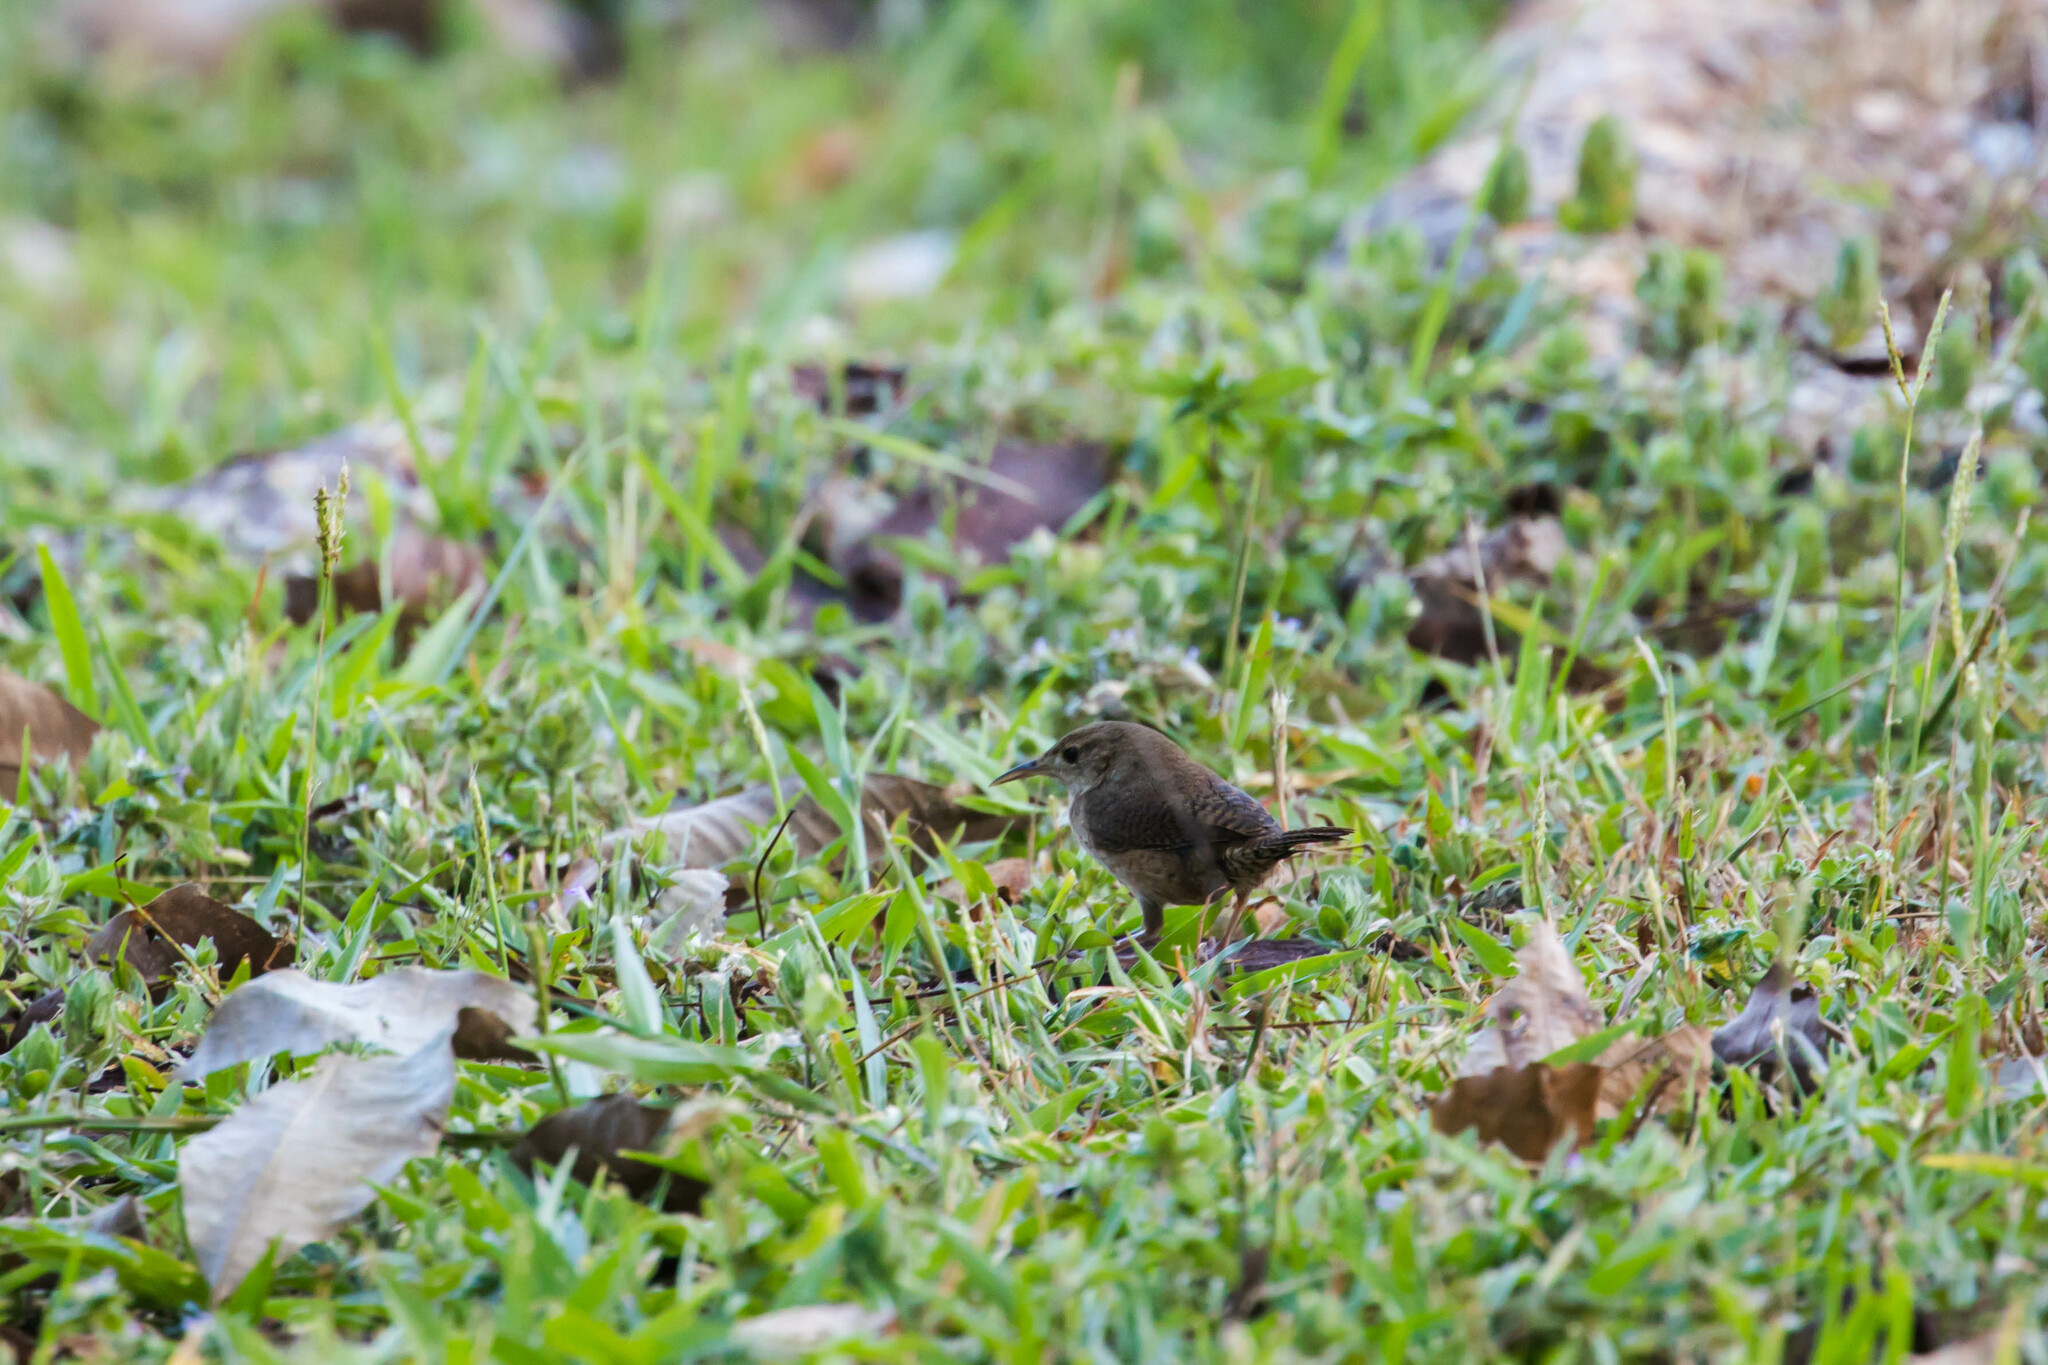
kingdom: Animalia
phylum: Chordata
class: Aves
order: Passeriformes
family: Troglodytidae
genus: Troglodytes
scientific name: Troglodytes aedon
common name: House wren
